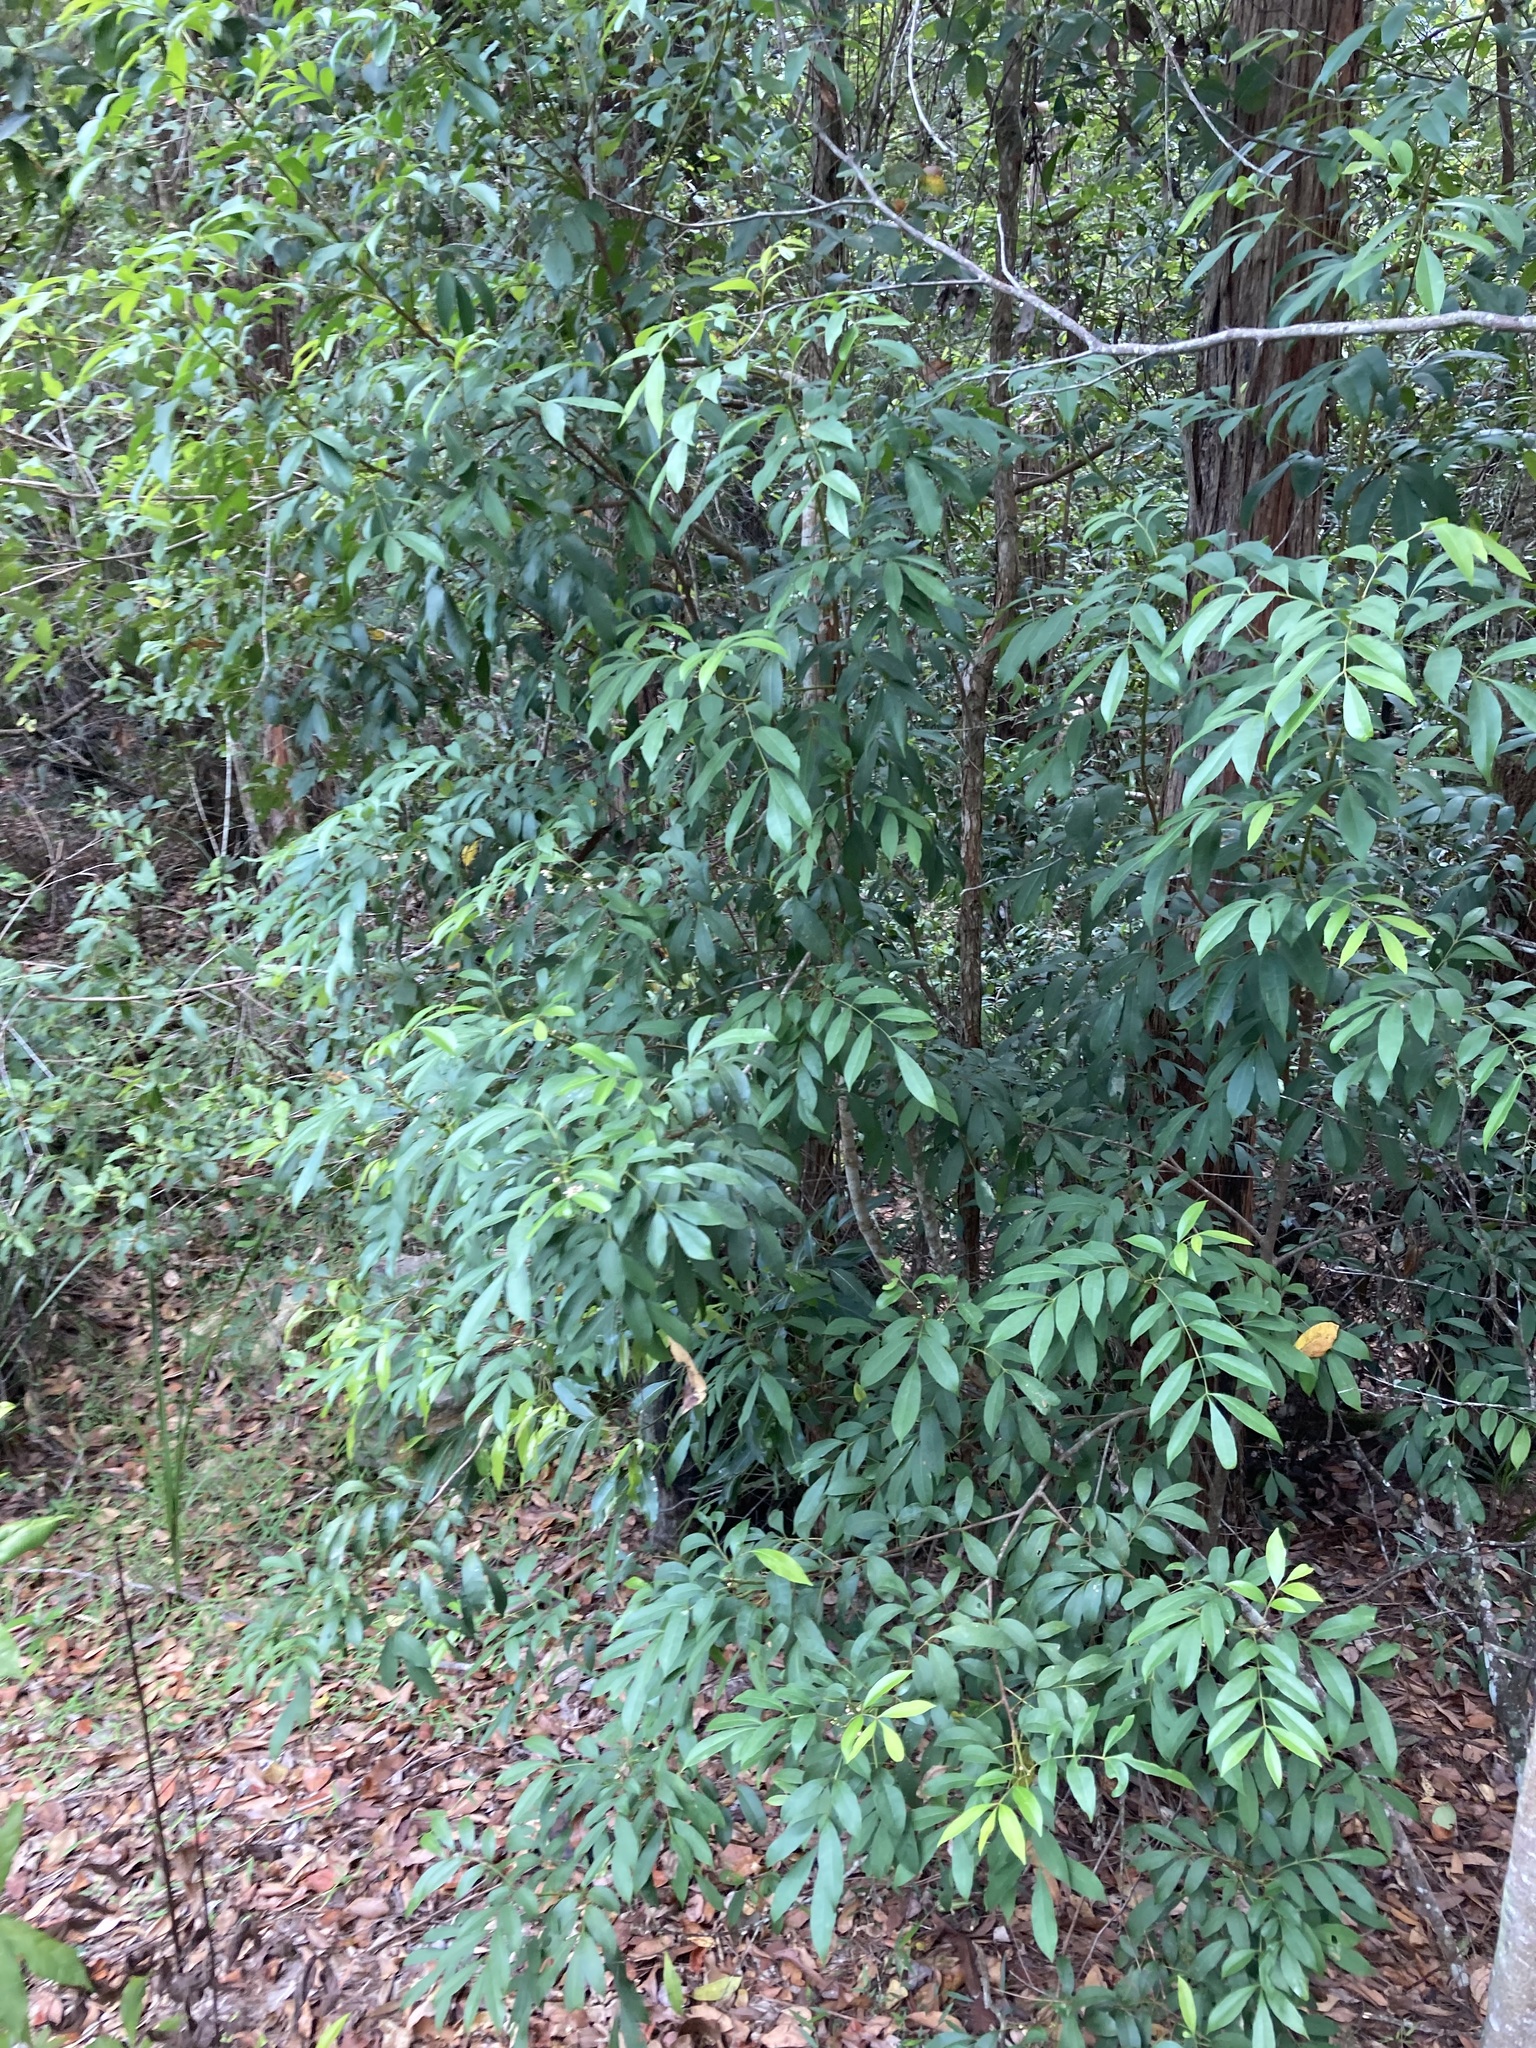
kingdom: Plantae
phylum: Tracheophyta
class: Magnoliopsida
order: Sapindales
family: Meliaceae
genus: Synoum
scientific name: Synoum glandulosum
